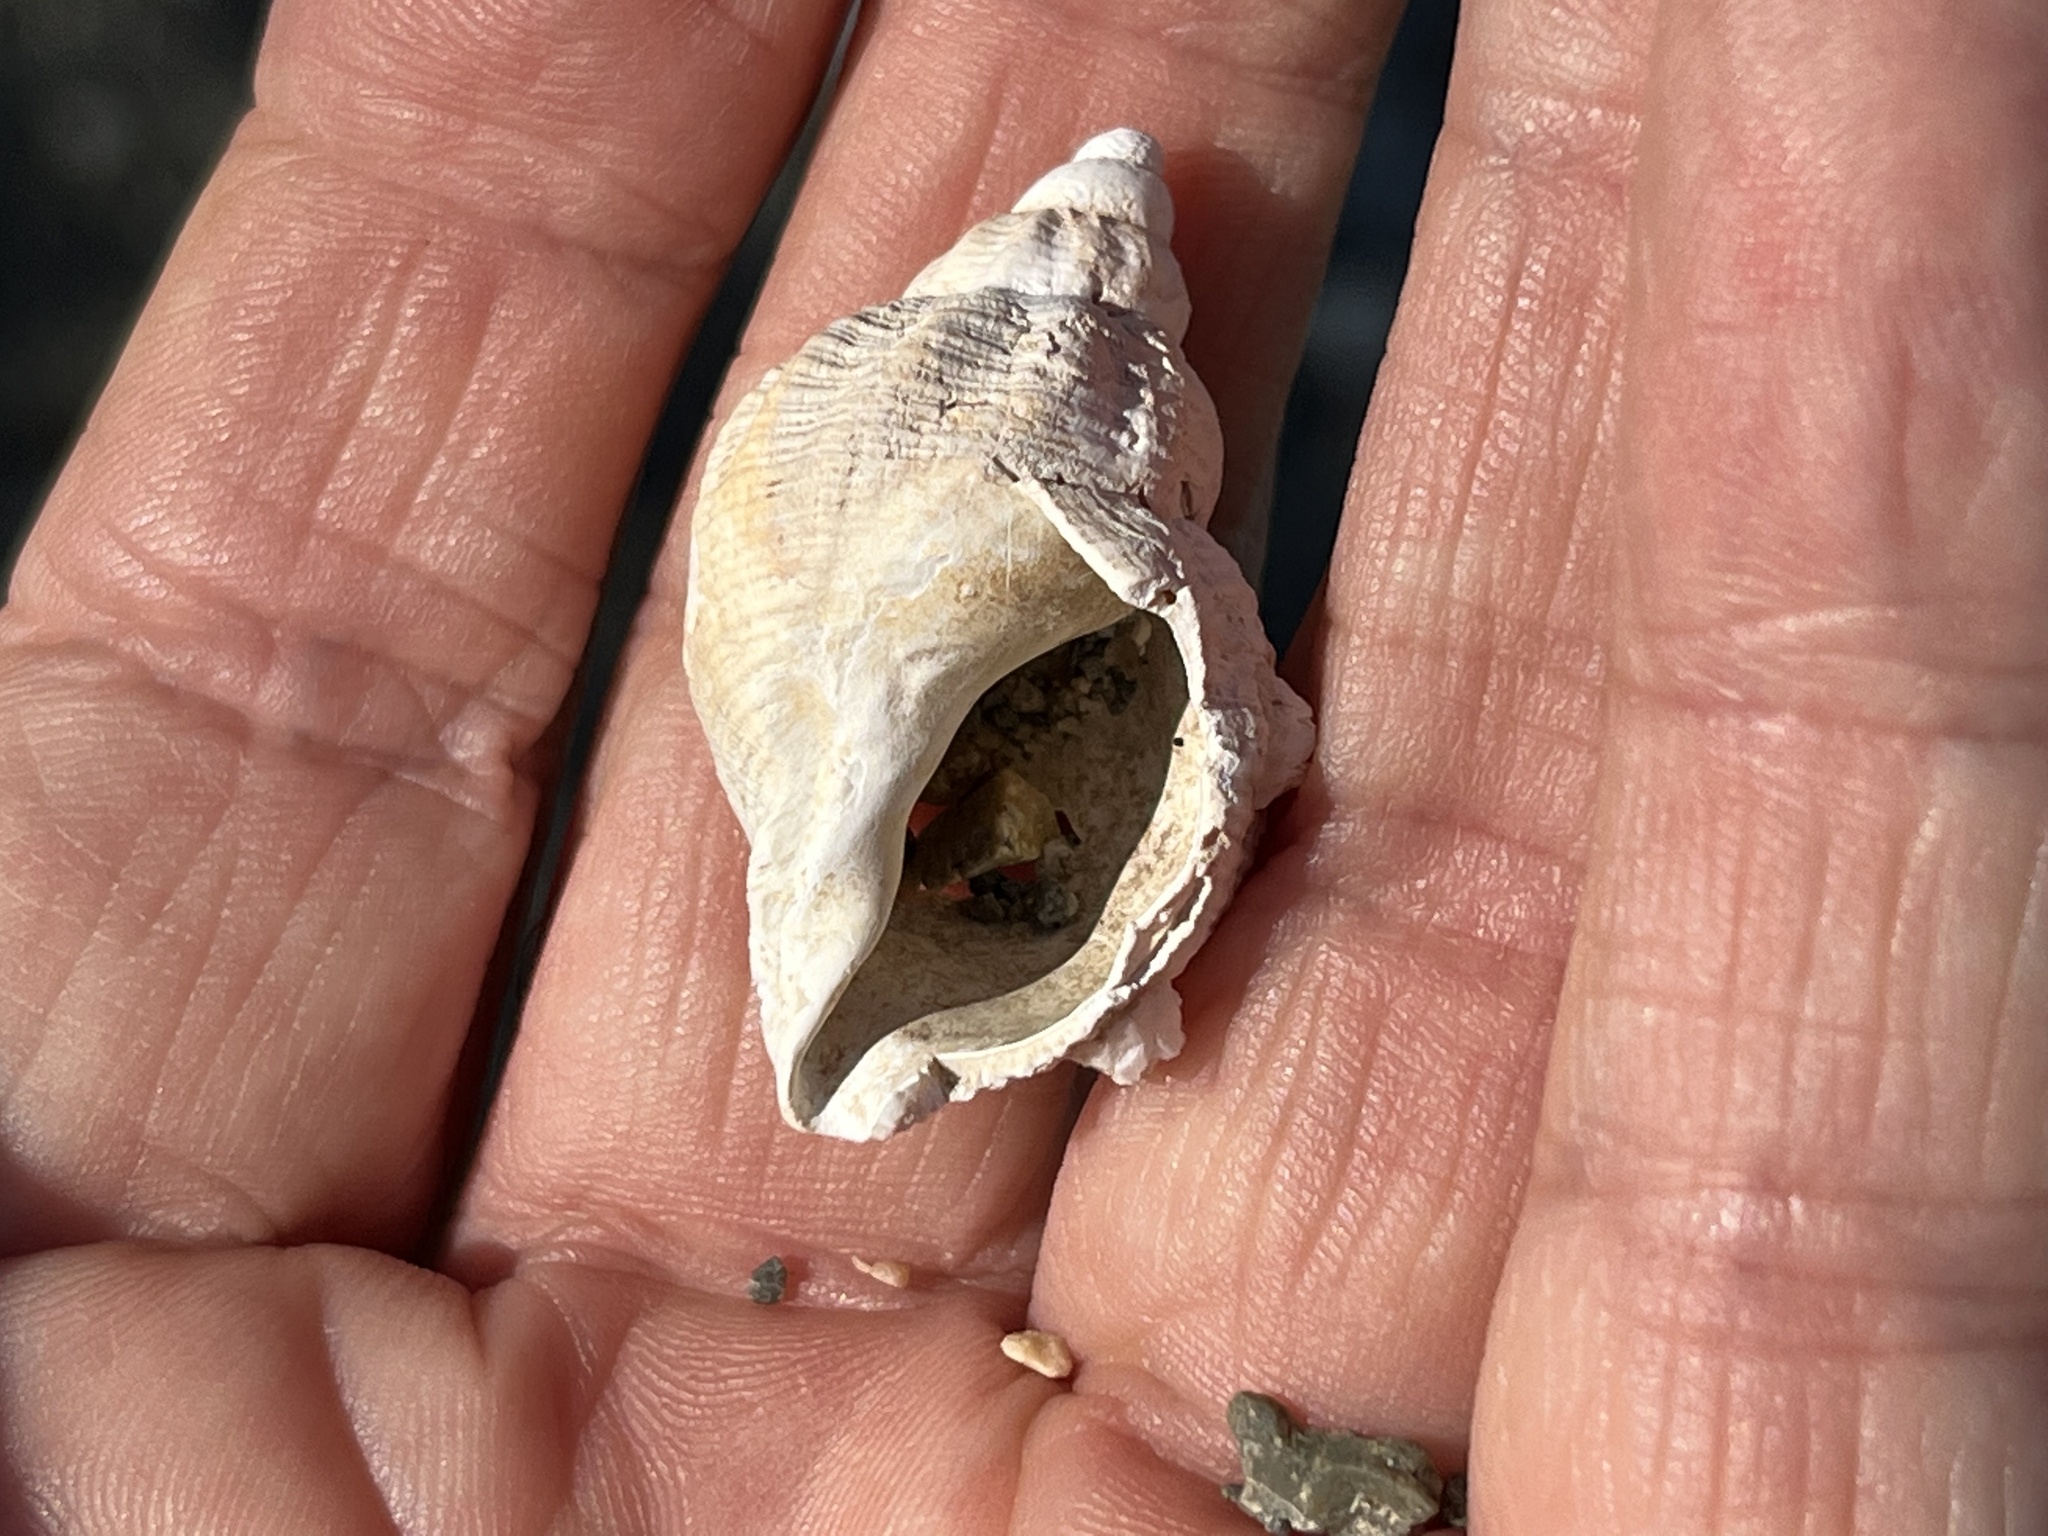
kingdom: Animalia
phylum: Mollusca
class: Gastropoda
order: Neogastropoda
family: Buccinidae
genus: Buccinum
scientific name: Buccinum undatum
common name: Common whelk
